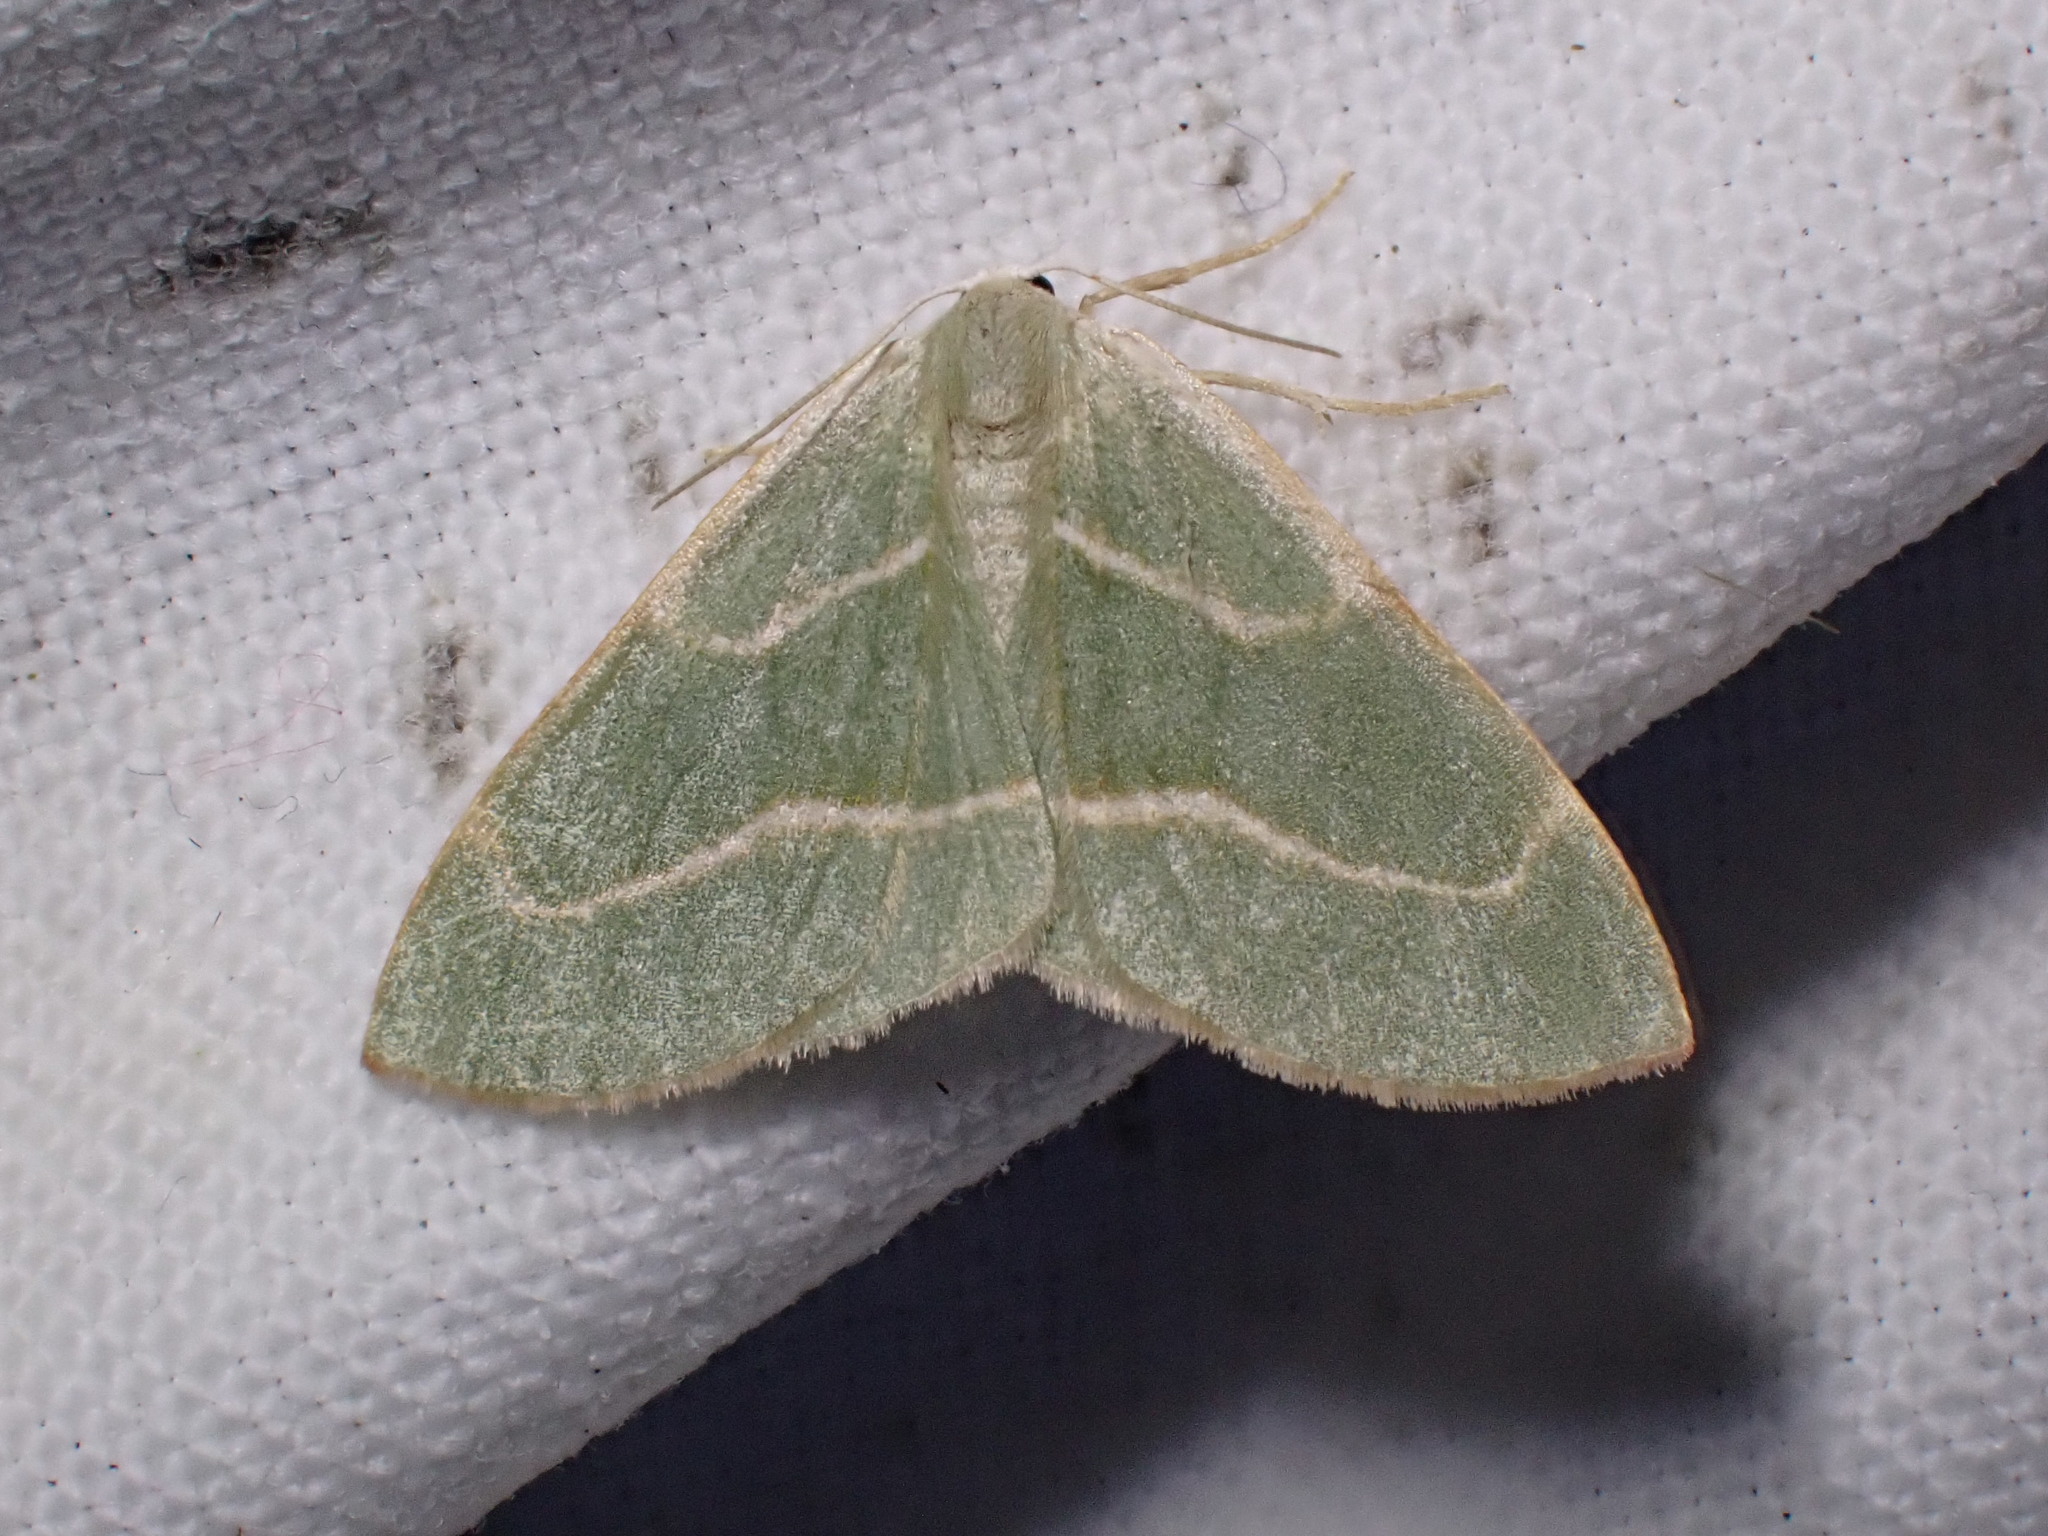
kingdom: Animalia
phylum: Arthropoda
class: Insecta
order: Lepidoptera
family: Geometridae
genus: Hylaea
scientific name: Hylaea fasciaria
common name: Barred red
